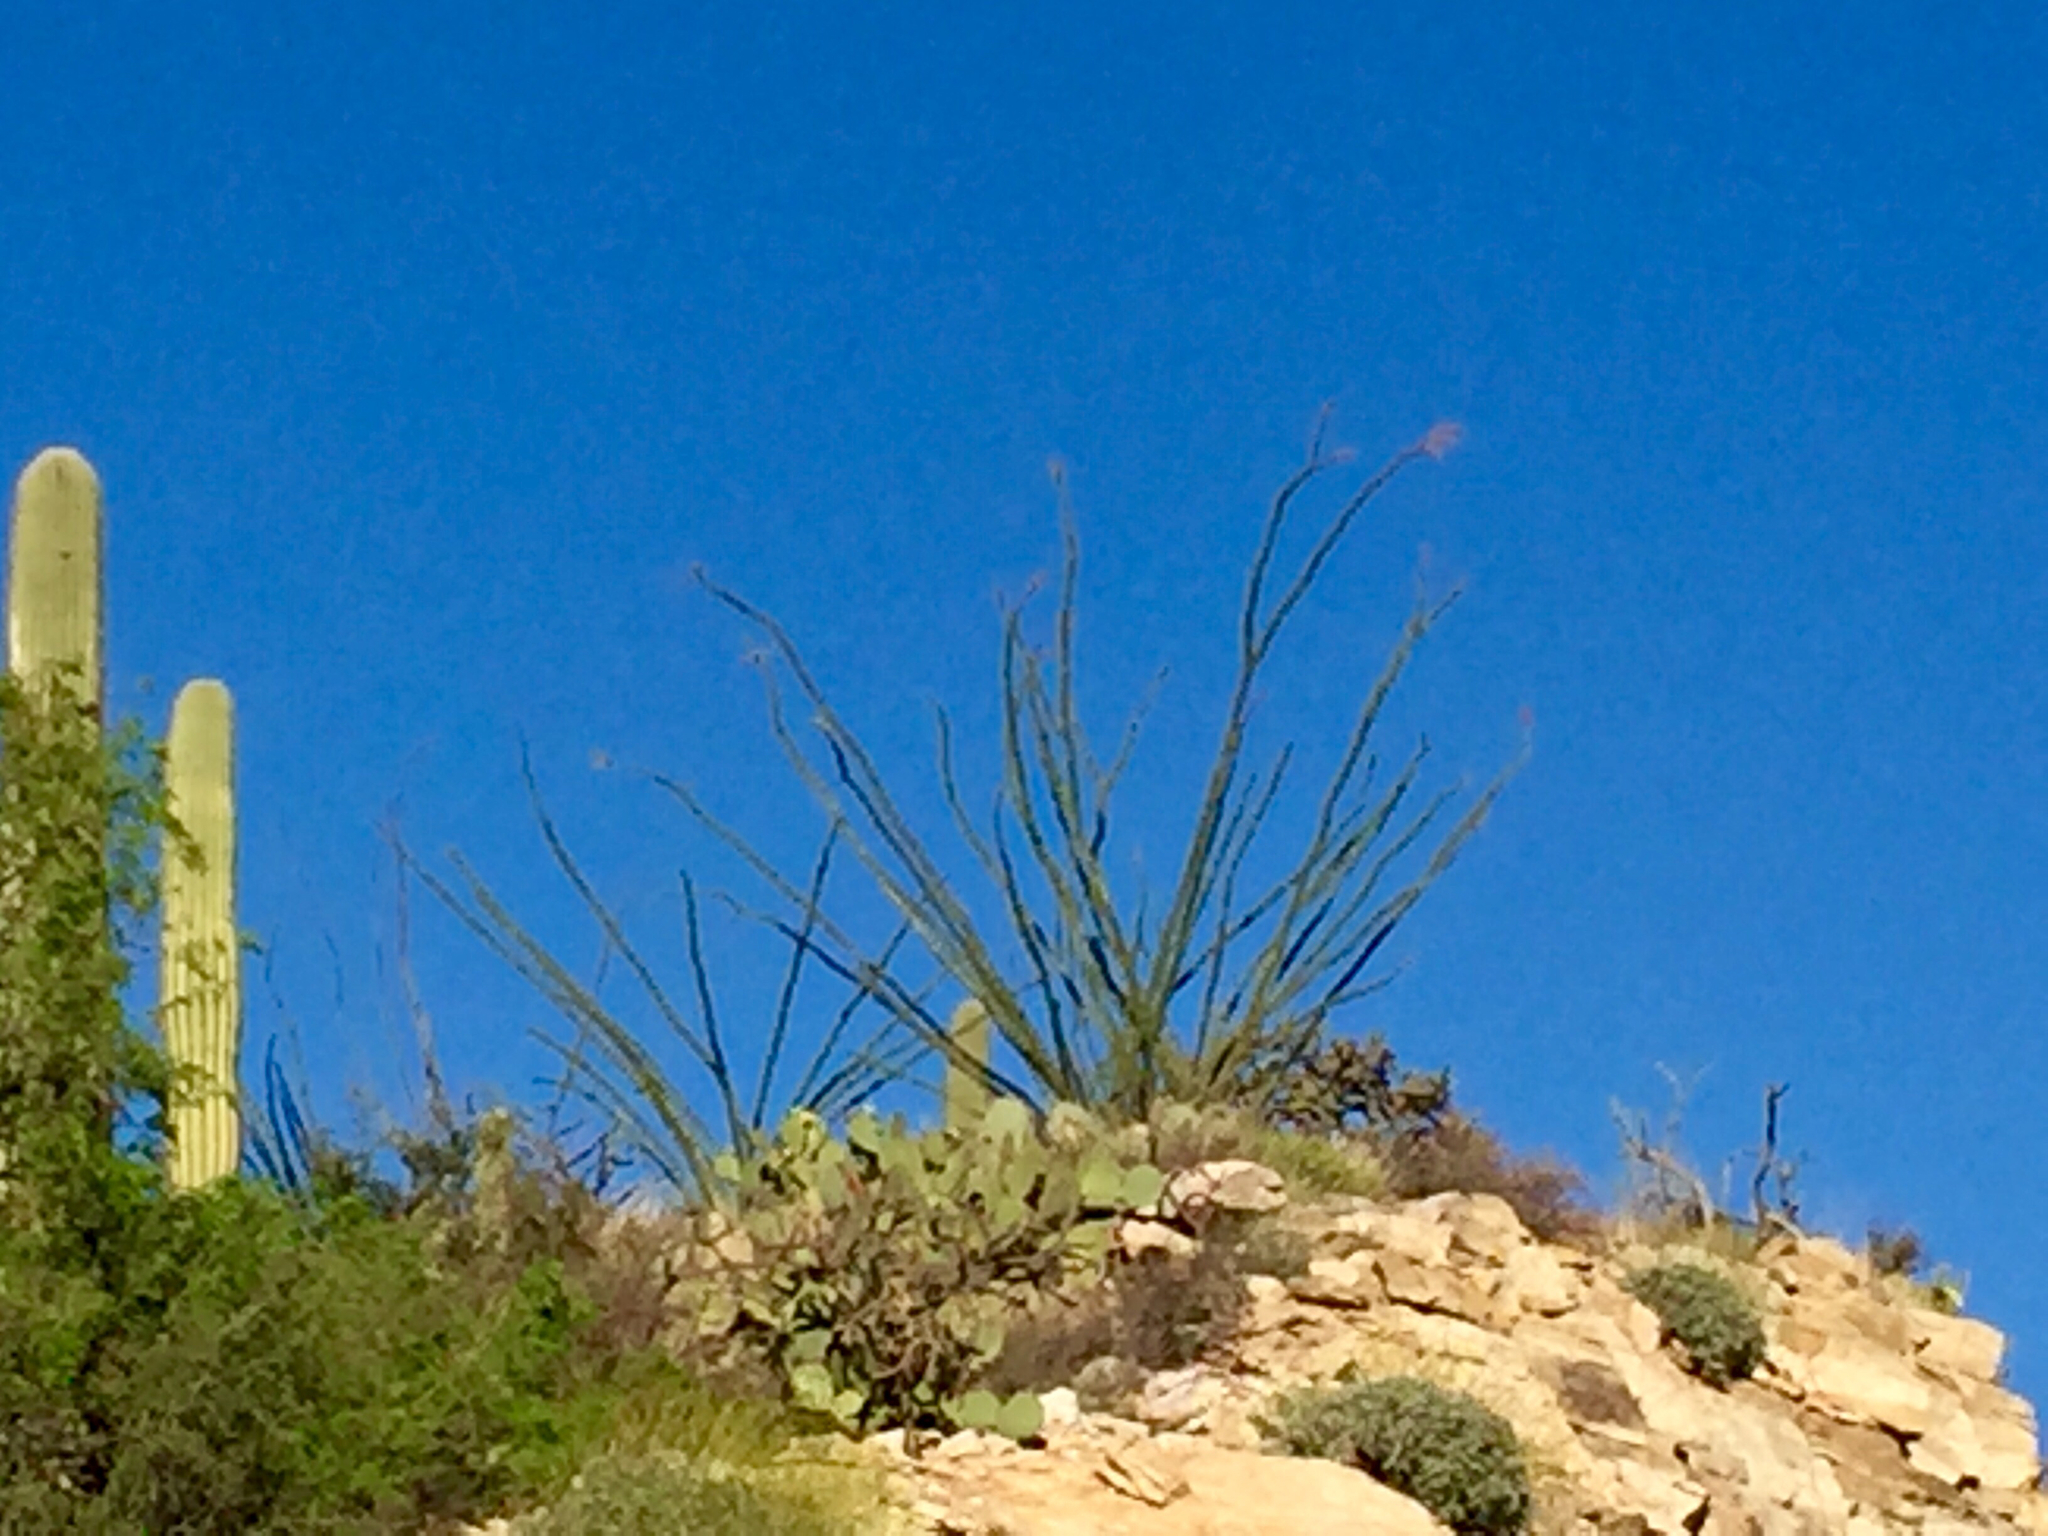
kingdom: Plantae
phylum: Tracheophyta
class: Magnoliopsida
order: Ericales
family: Fouquieriaceae
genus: Fouquieria
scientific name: Fouquieria splendens
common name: Vine-cactus
